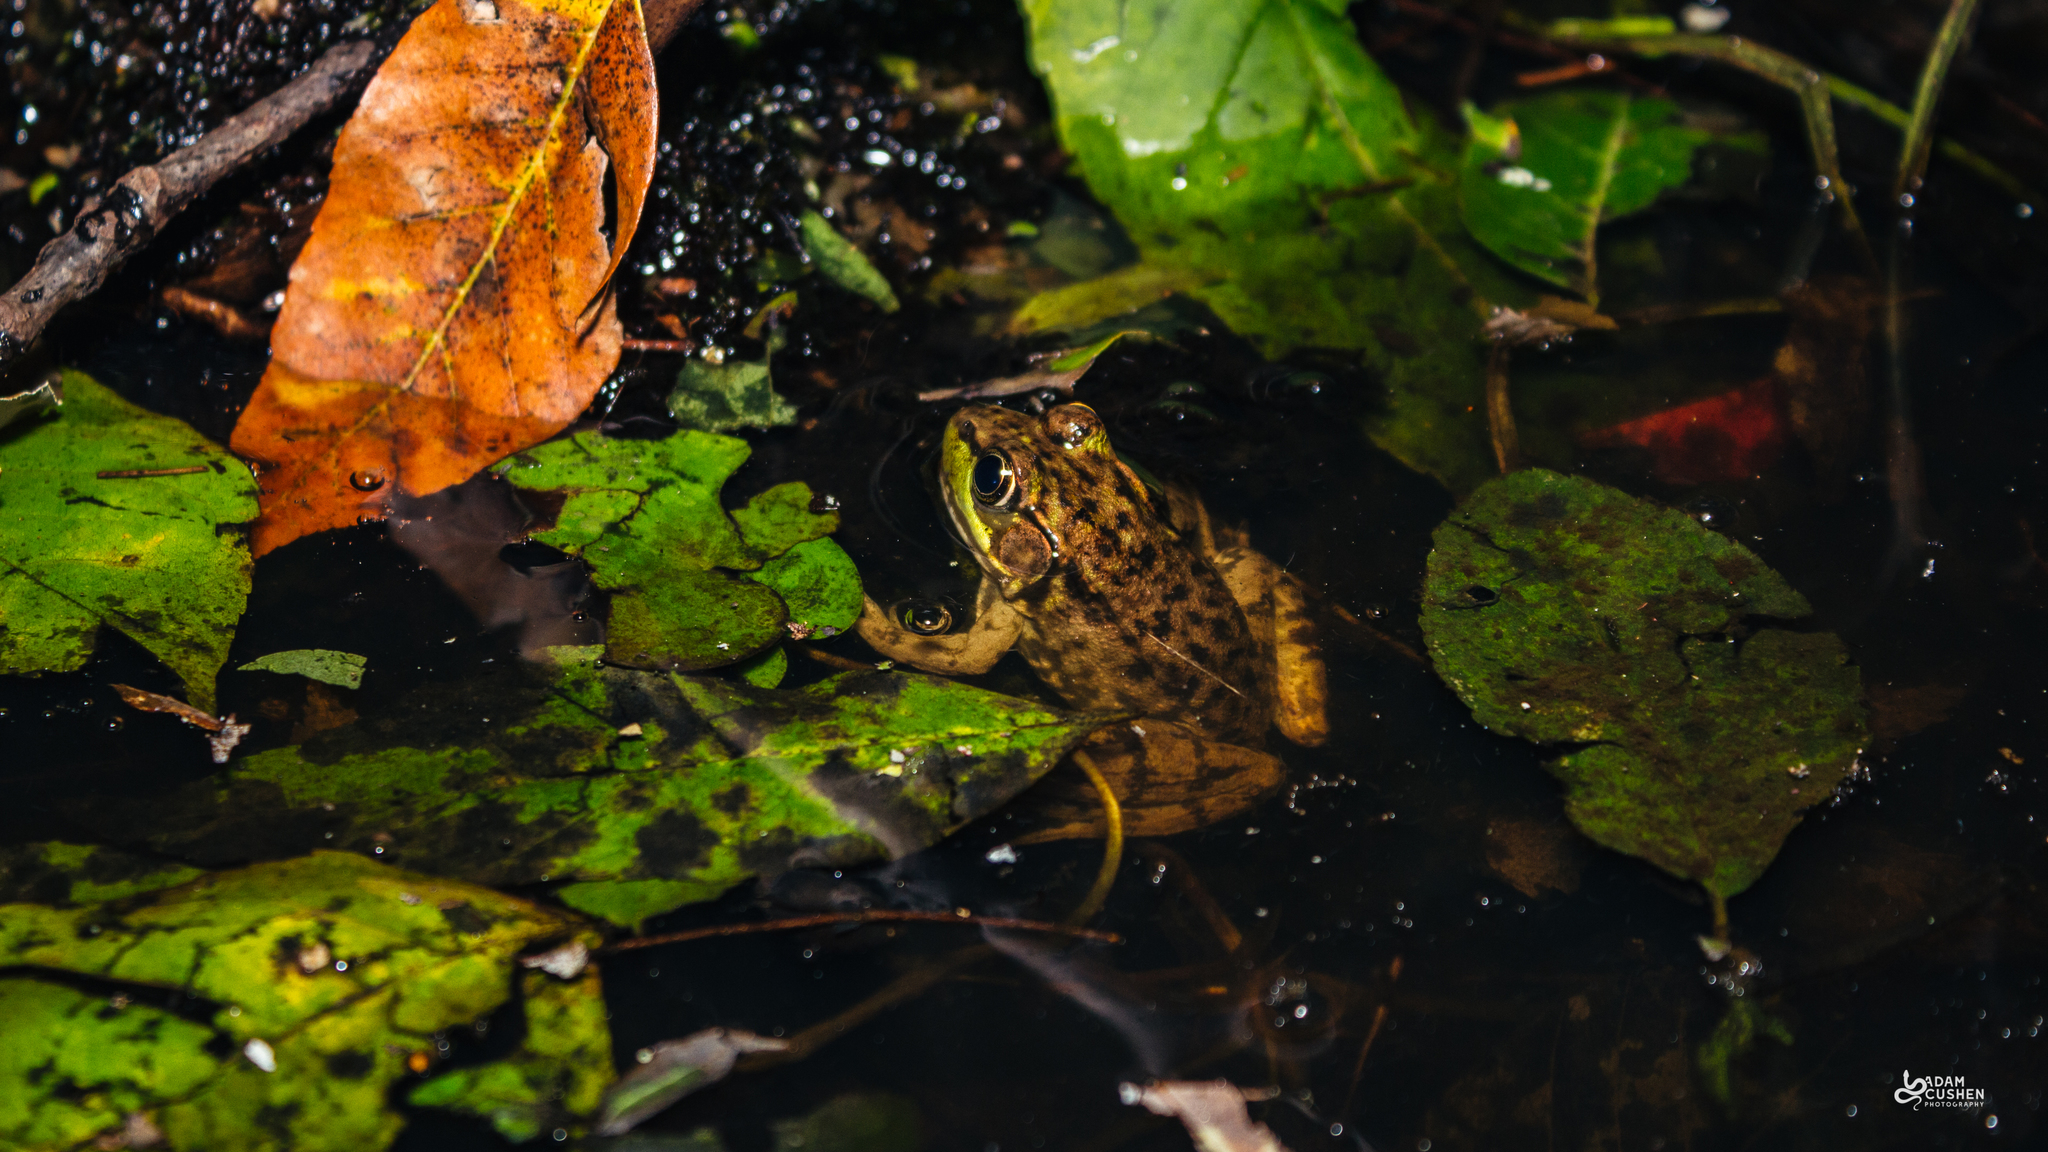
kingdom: Animalia
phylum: Chordata
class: Amphibia
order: Anura
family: Ranidae
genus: Lithobates
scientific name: Lithobates clamitans
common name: Green frog
